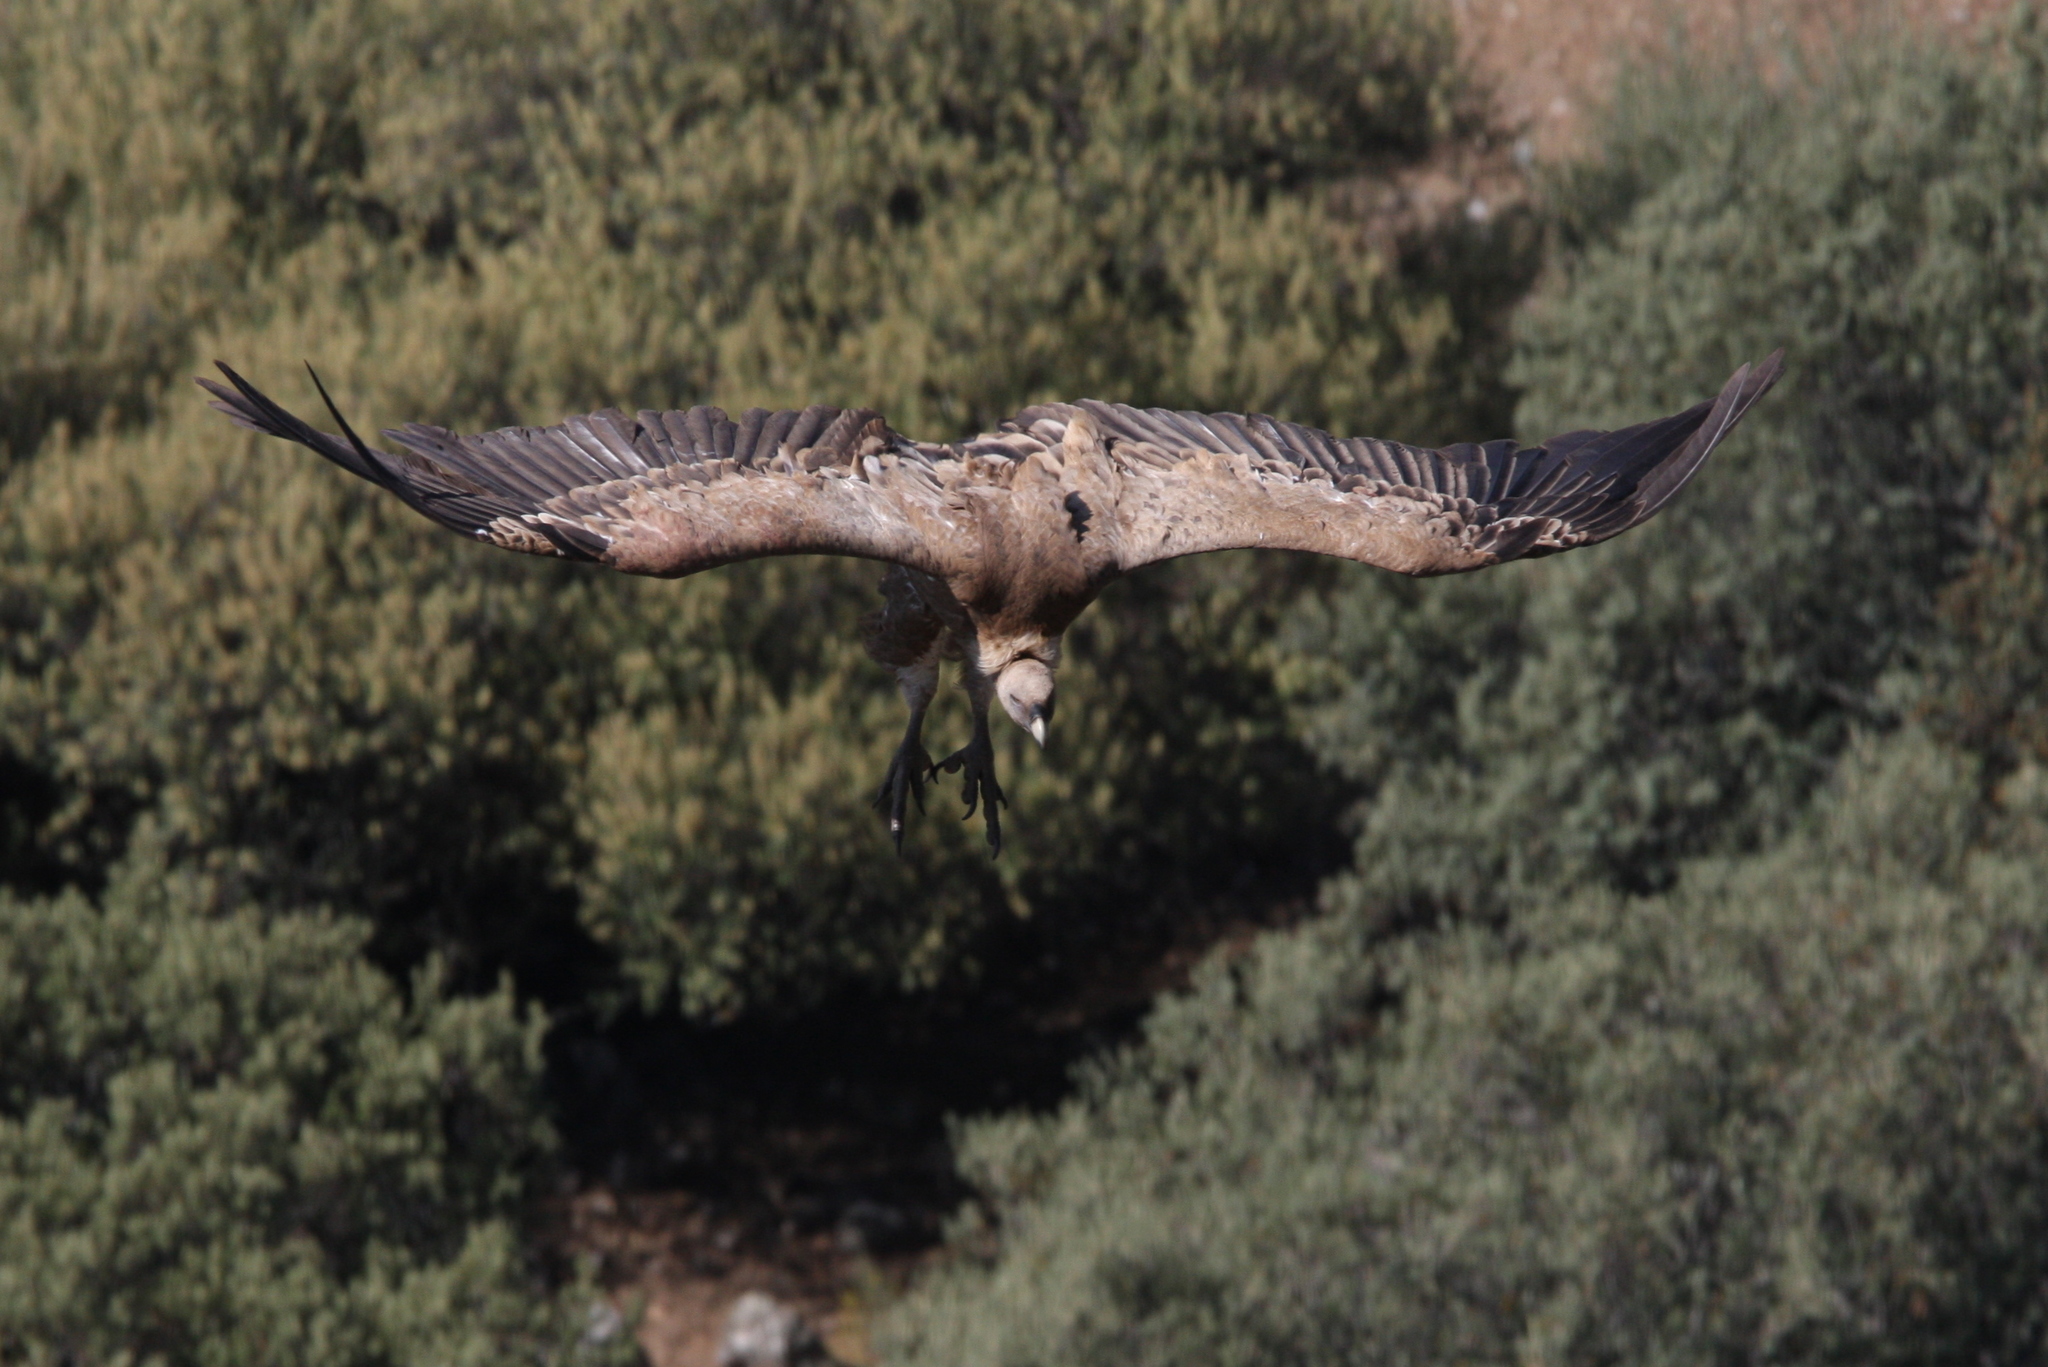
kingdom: Animalia
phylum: Chordata
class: Aves
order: Accipitriformes
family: Accipitridae
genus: Gyps
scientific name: Gyps fulvus
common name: Griffon vulture
